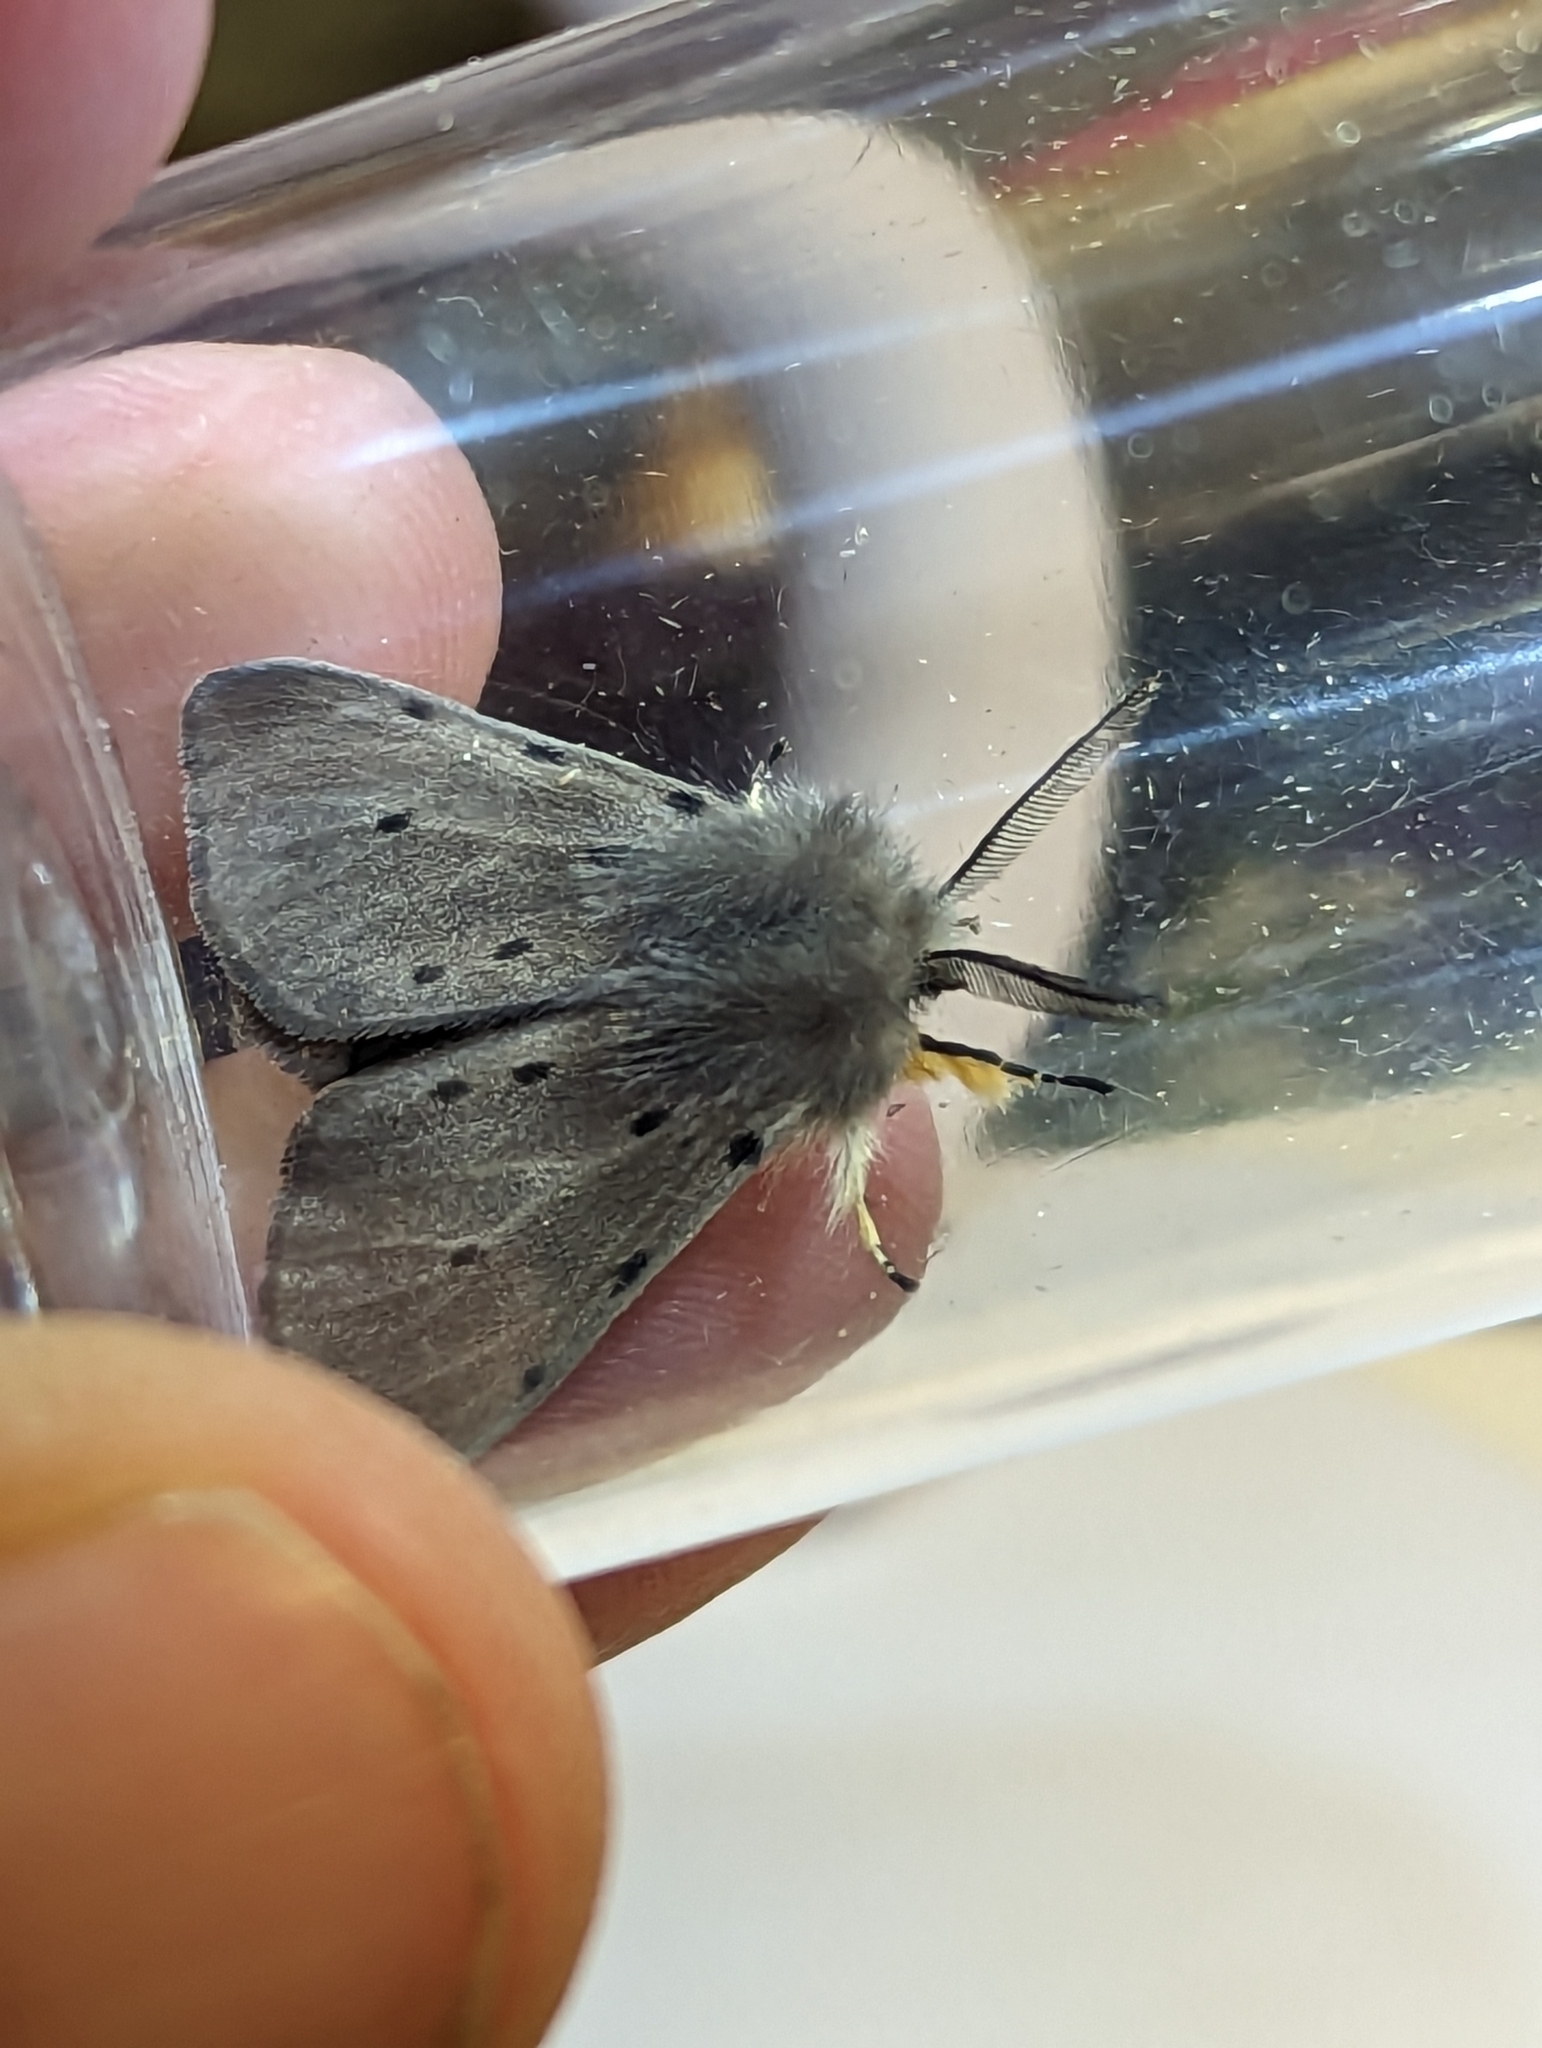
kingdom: Animalia
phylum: Arthropoda
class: Insecta
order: Lepidoptera
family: Erebidae
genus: Diaphora
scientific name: Diaphora mendica
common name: Muslin moth
